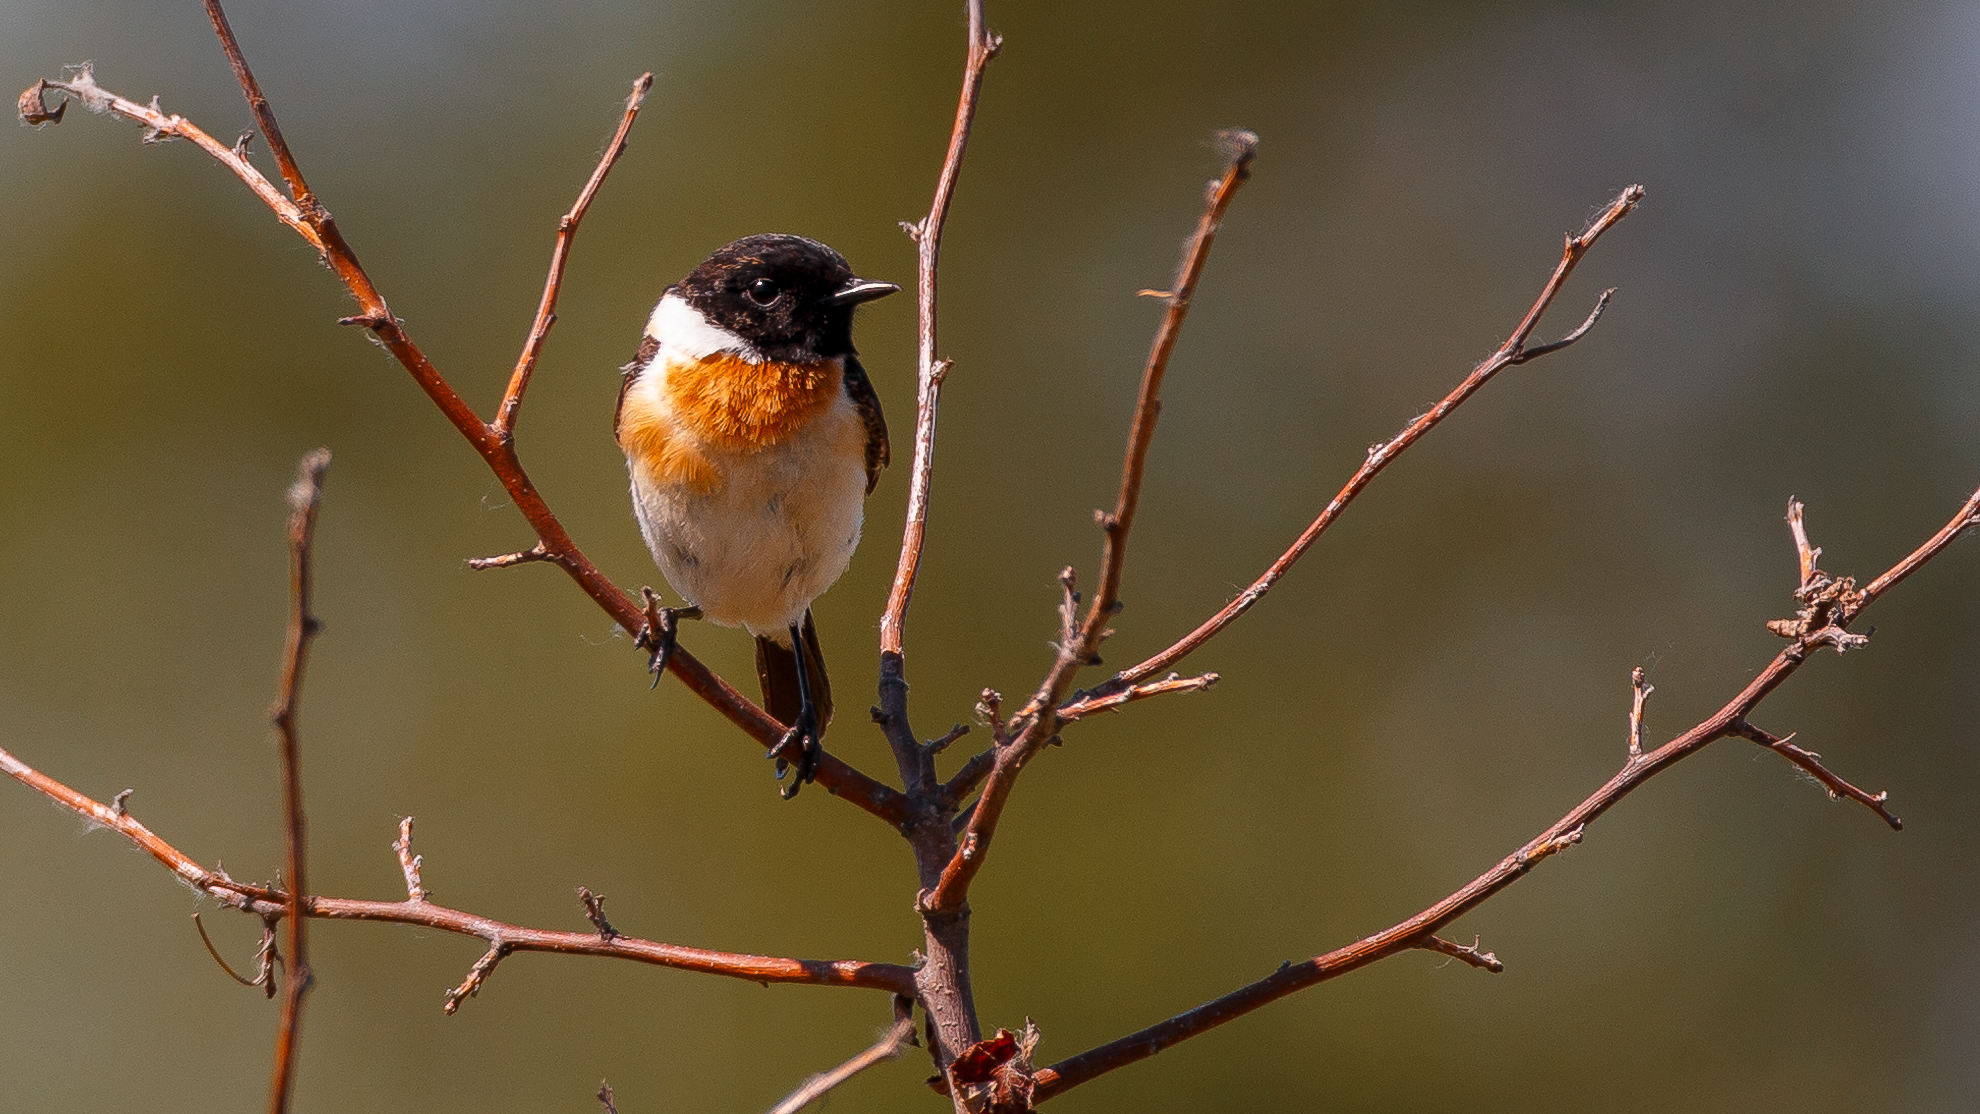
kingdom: Animalia
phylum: Chordata
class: Aves
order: Passeriformes
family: Muscicapidae
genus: Saxicola
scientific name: Saxicola maurus
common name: Siberian stonechat
